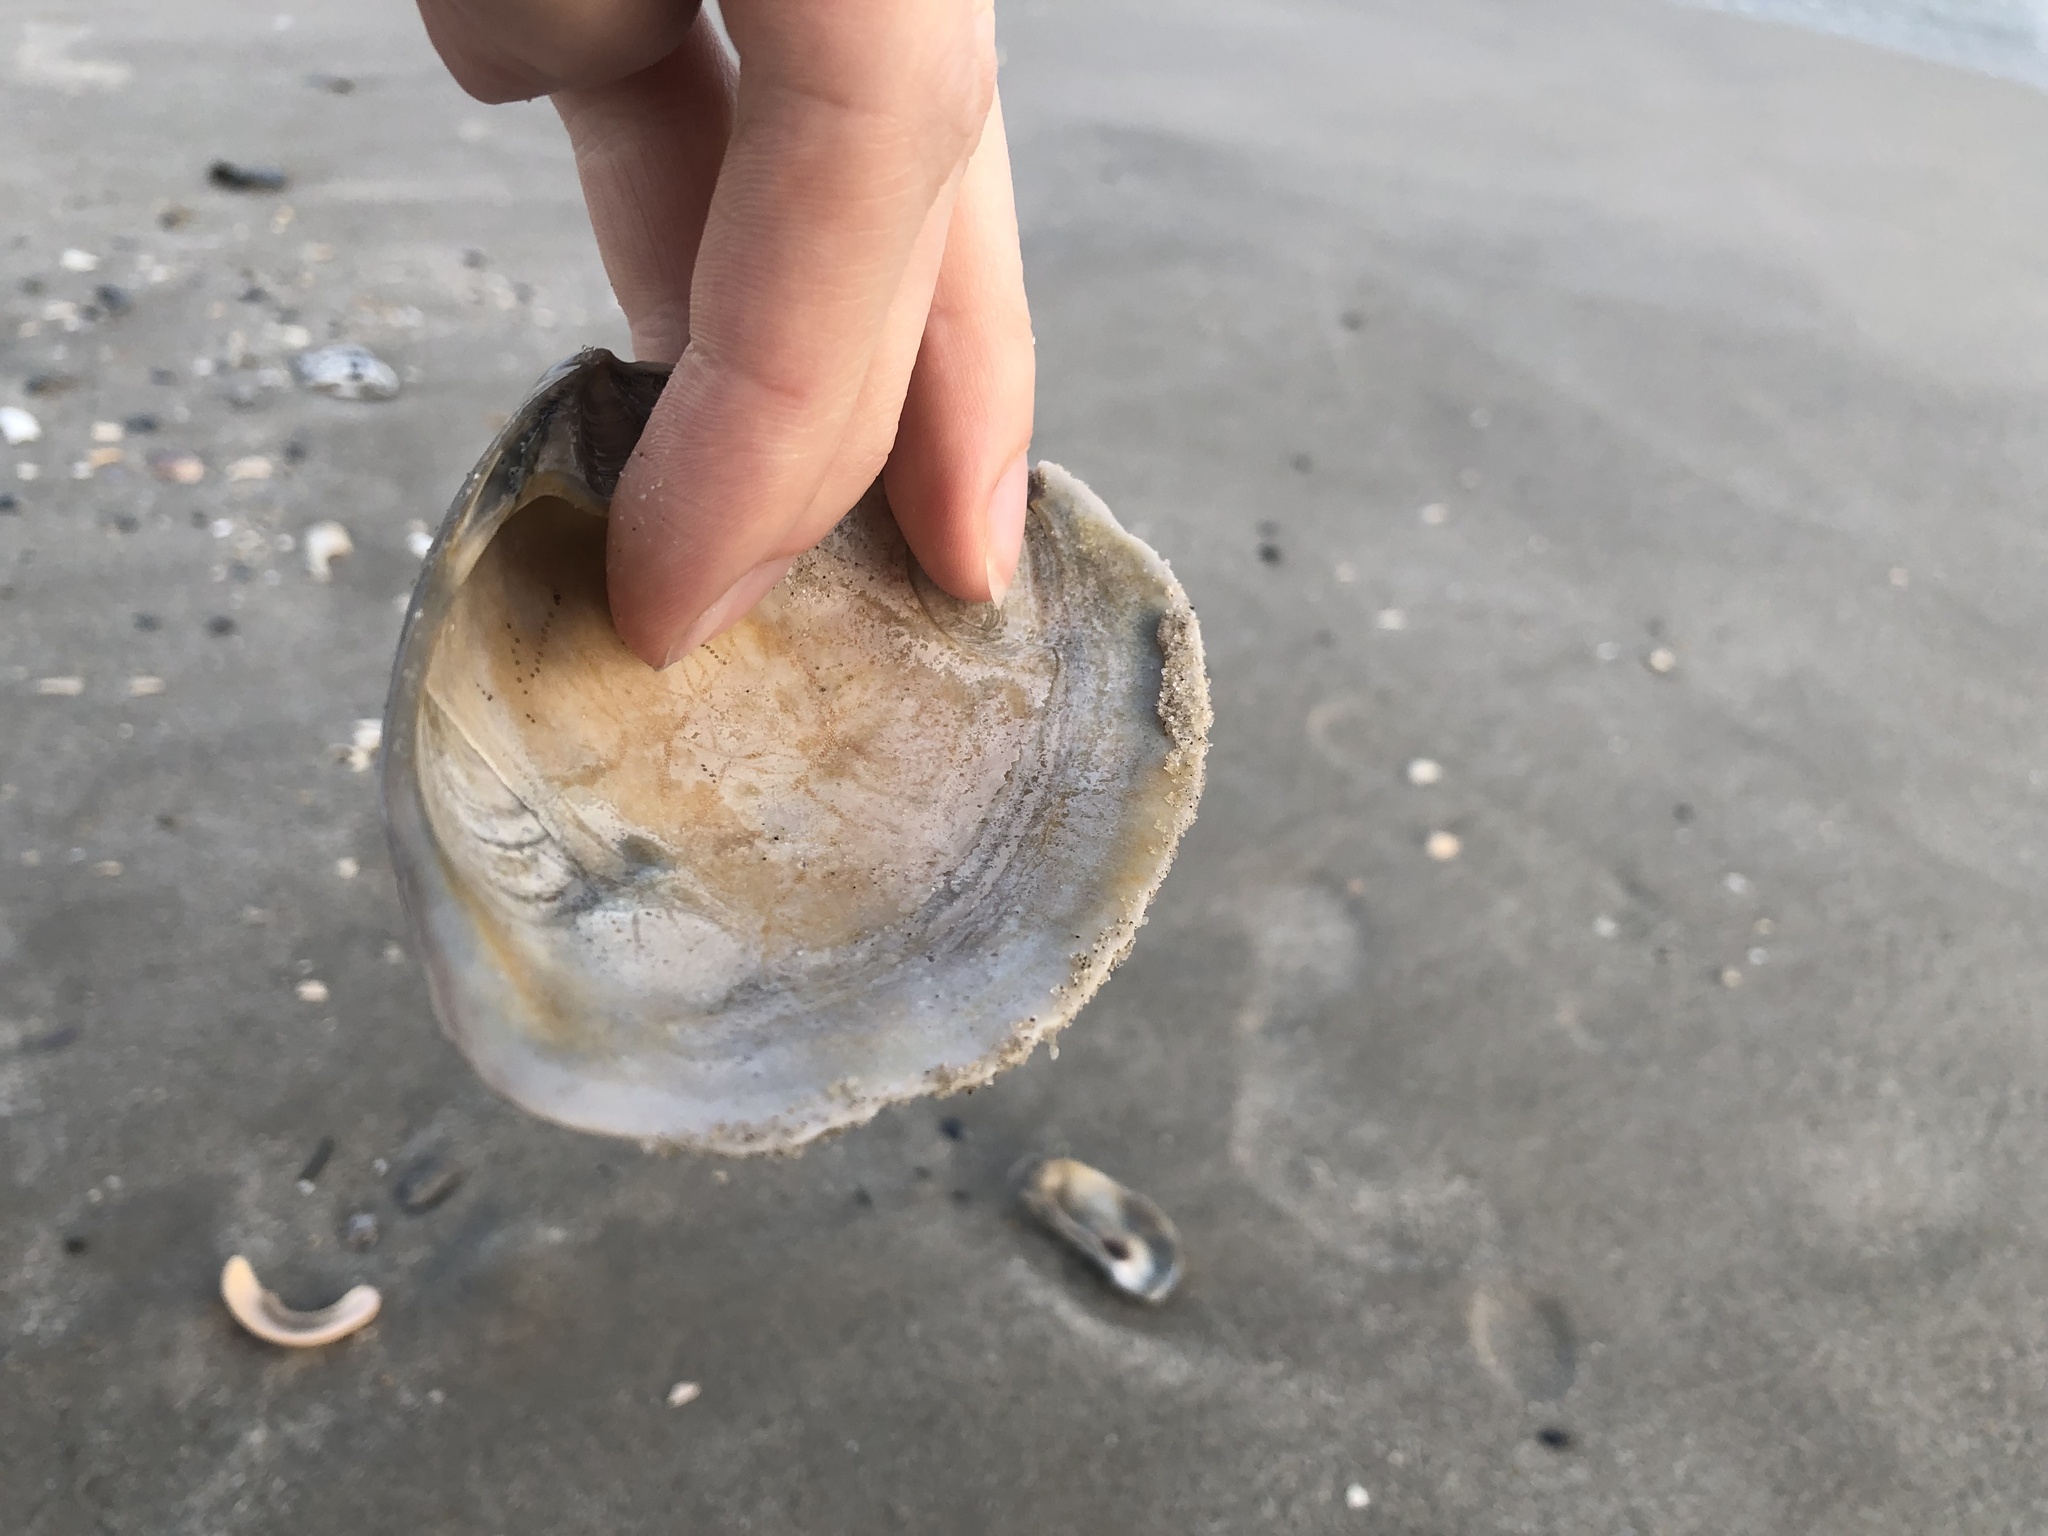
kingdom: Animalia
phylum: Mollusca
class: Bivalvia
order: Venerida
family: Mactridae
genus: Spisula
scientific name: Spisula solidissima
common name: Atlantic surf clam
